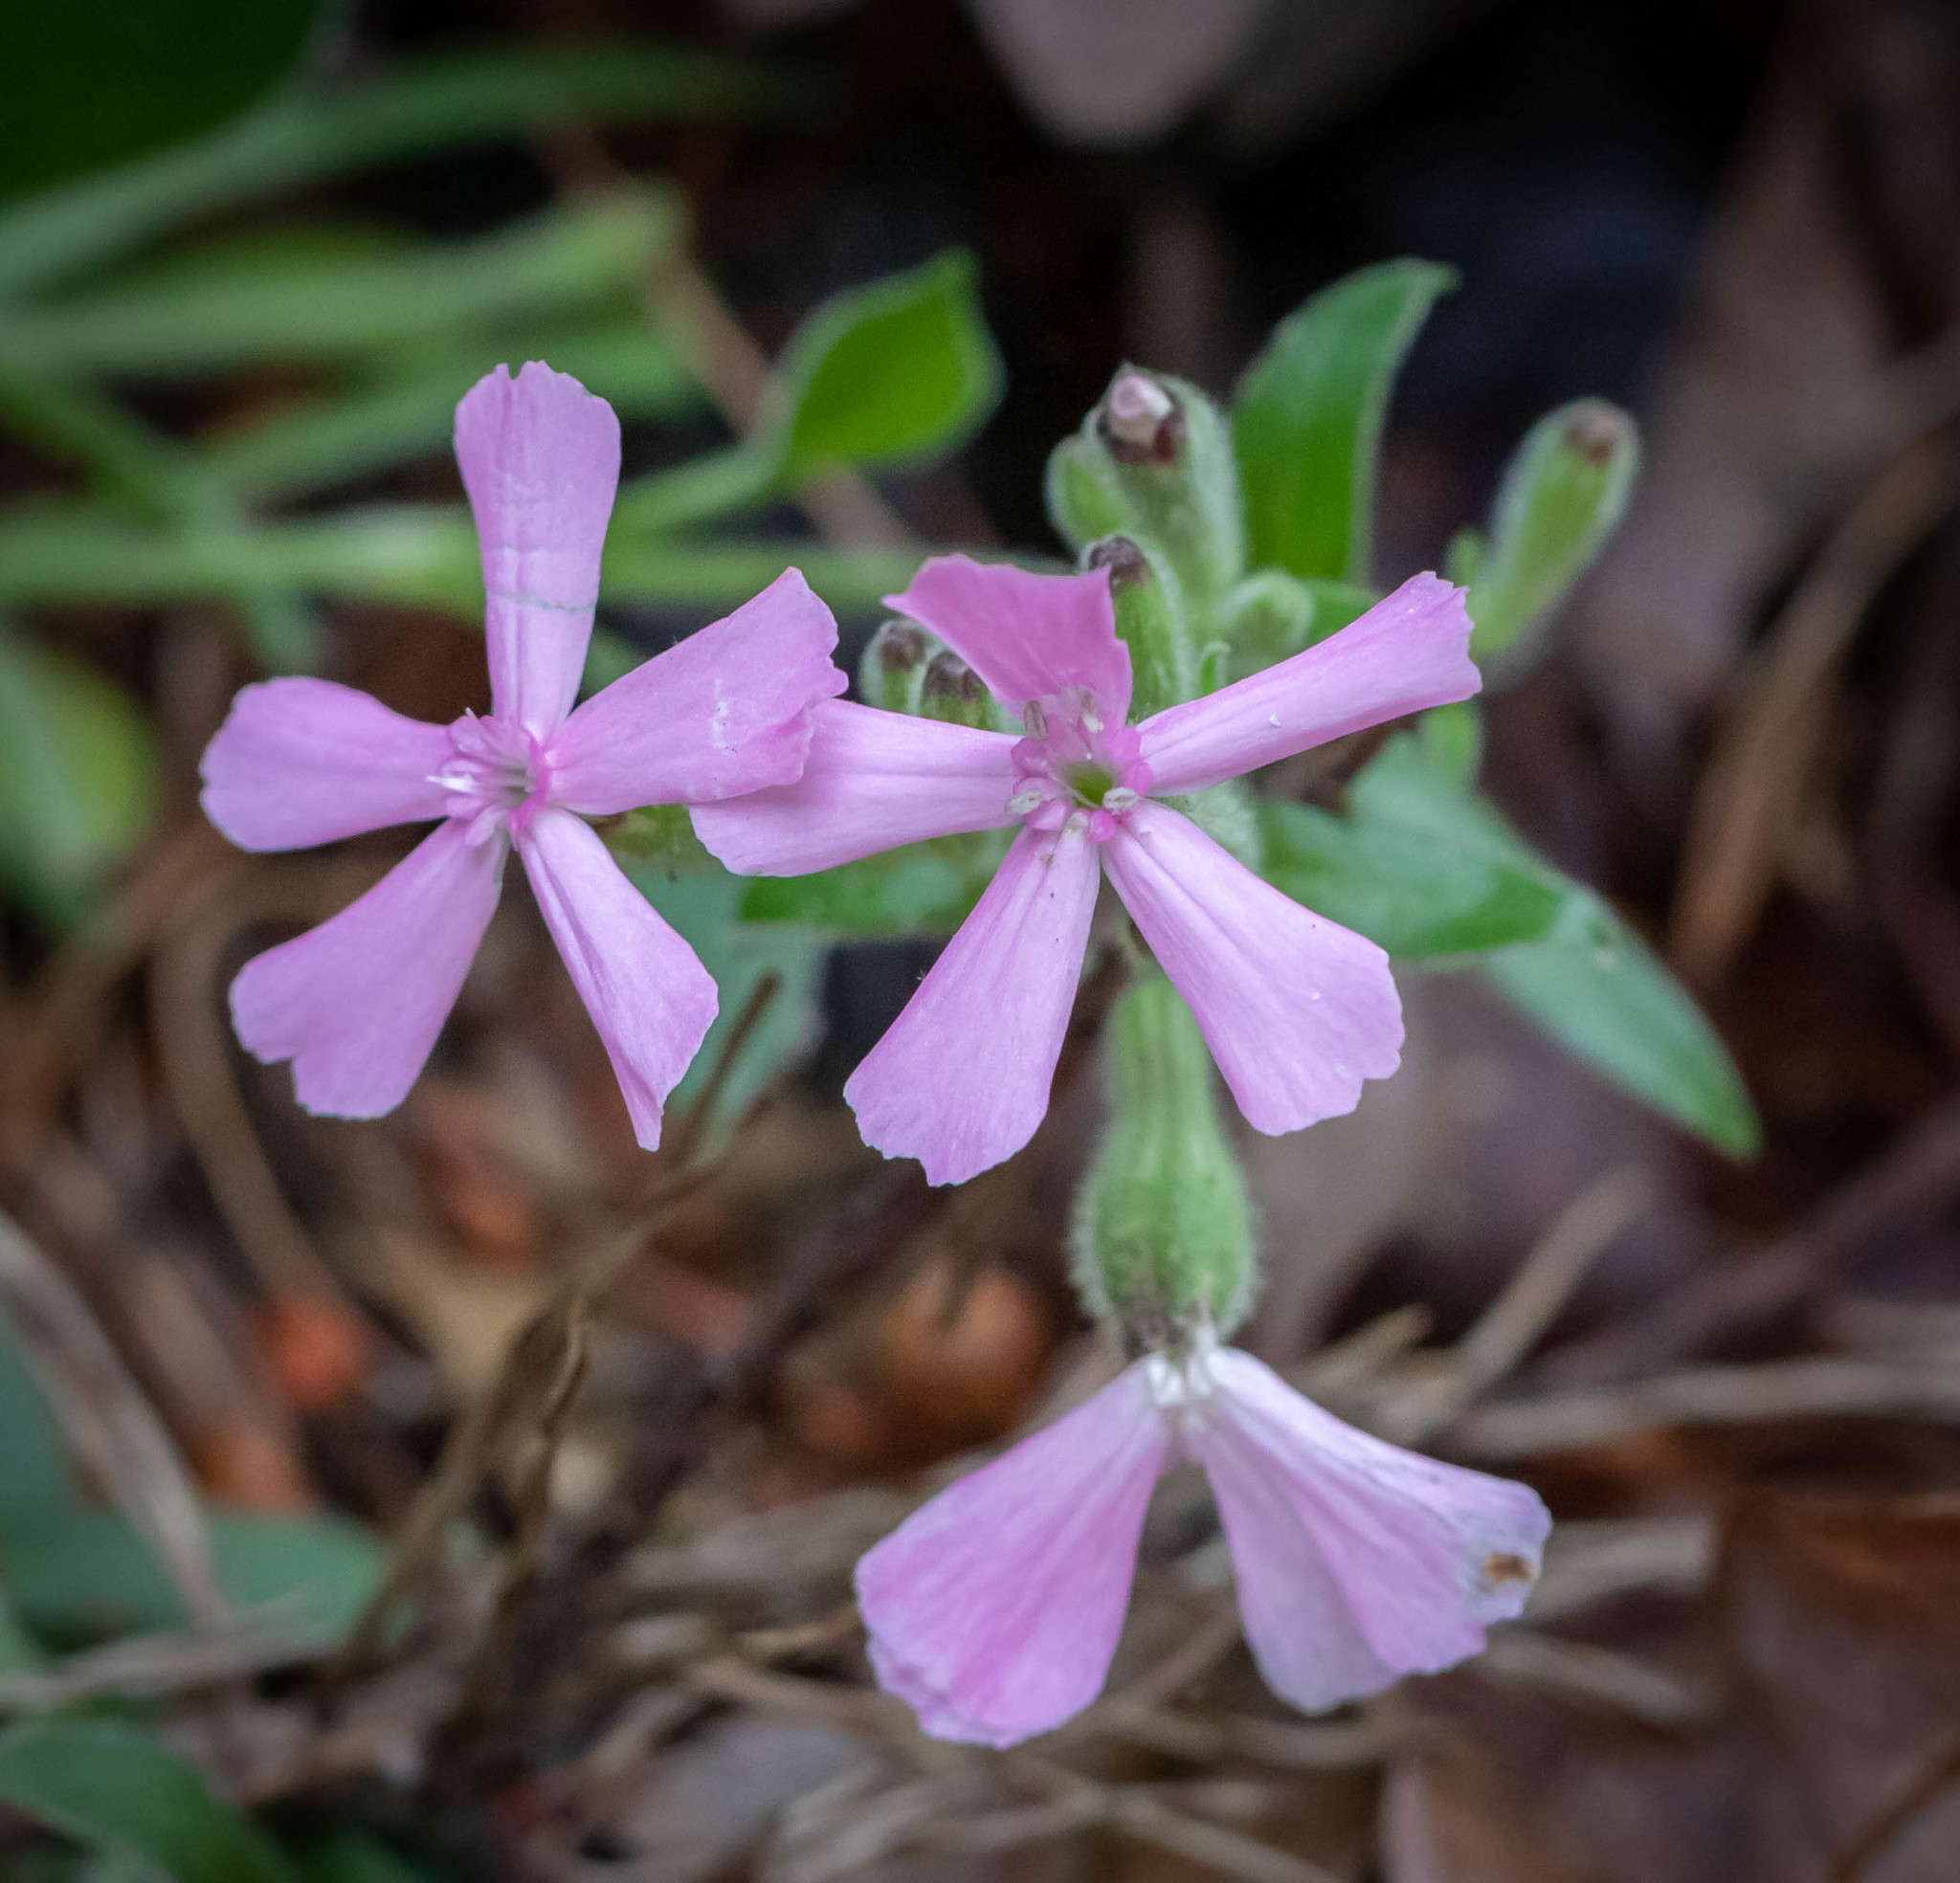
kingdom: Plantae
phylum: Tracheophyta
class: Magnoliopsida
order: Caryophyllales
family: Caryophyllaceae
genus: Silene
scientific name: Silene caroliniana
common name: Sticky catchfly
